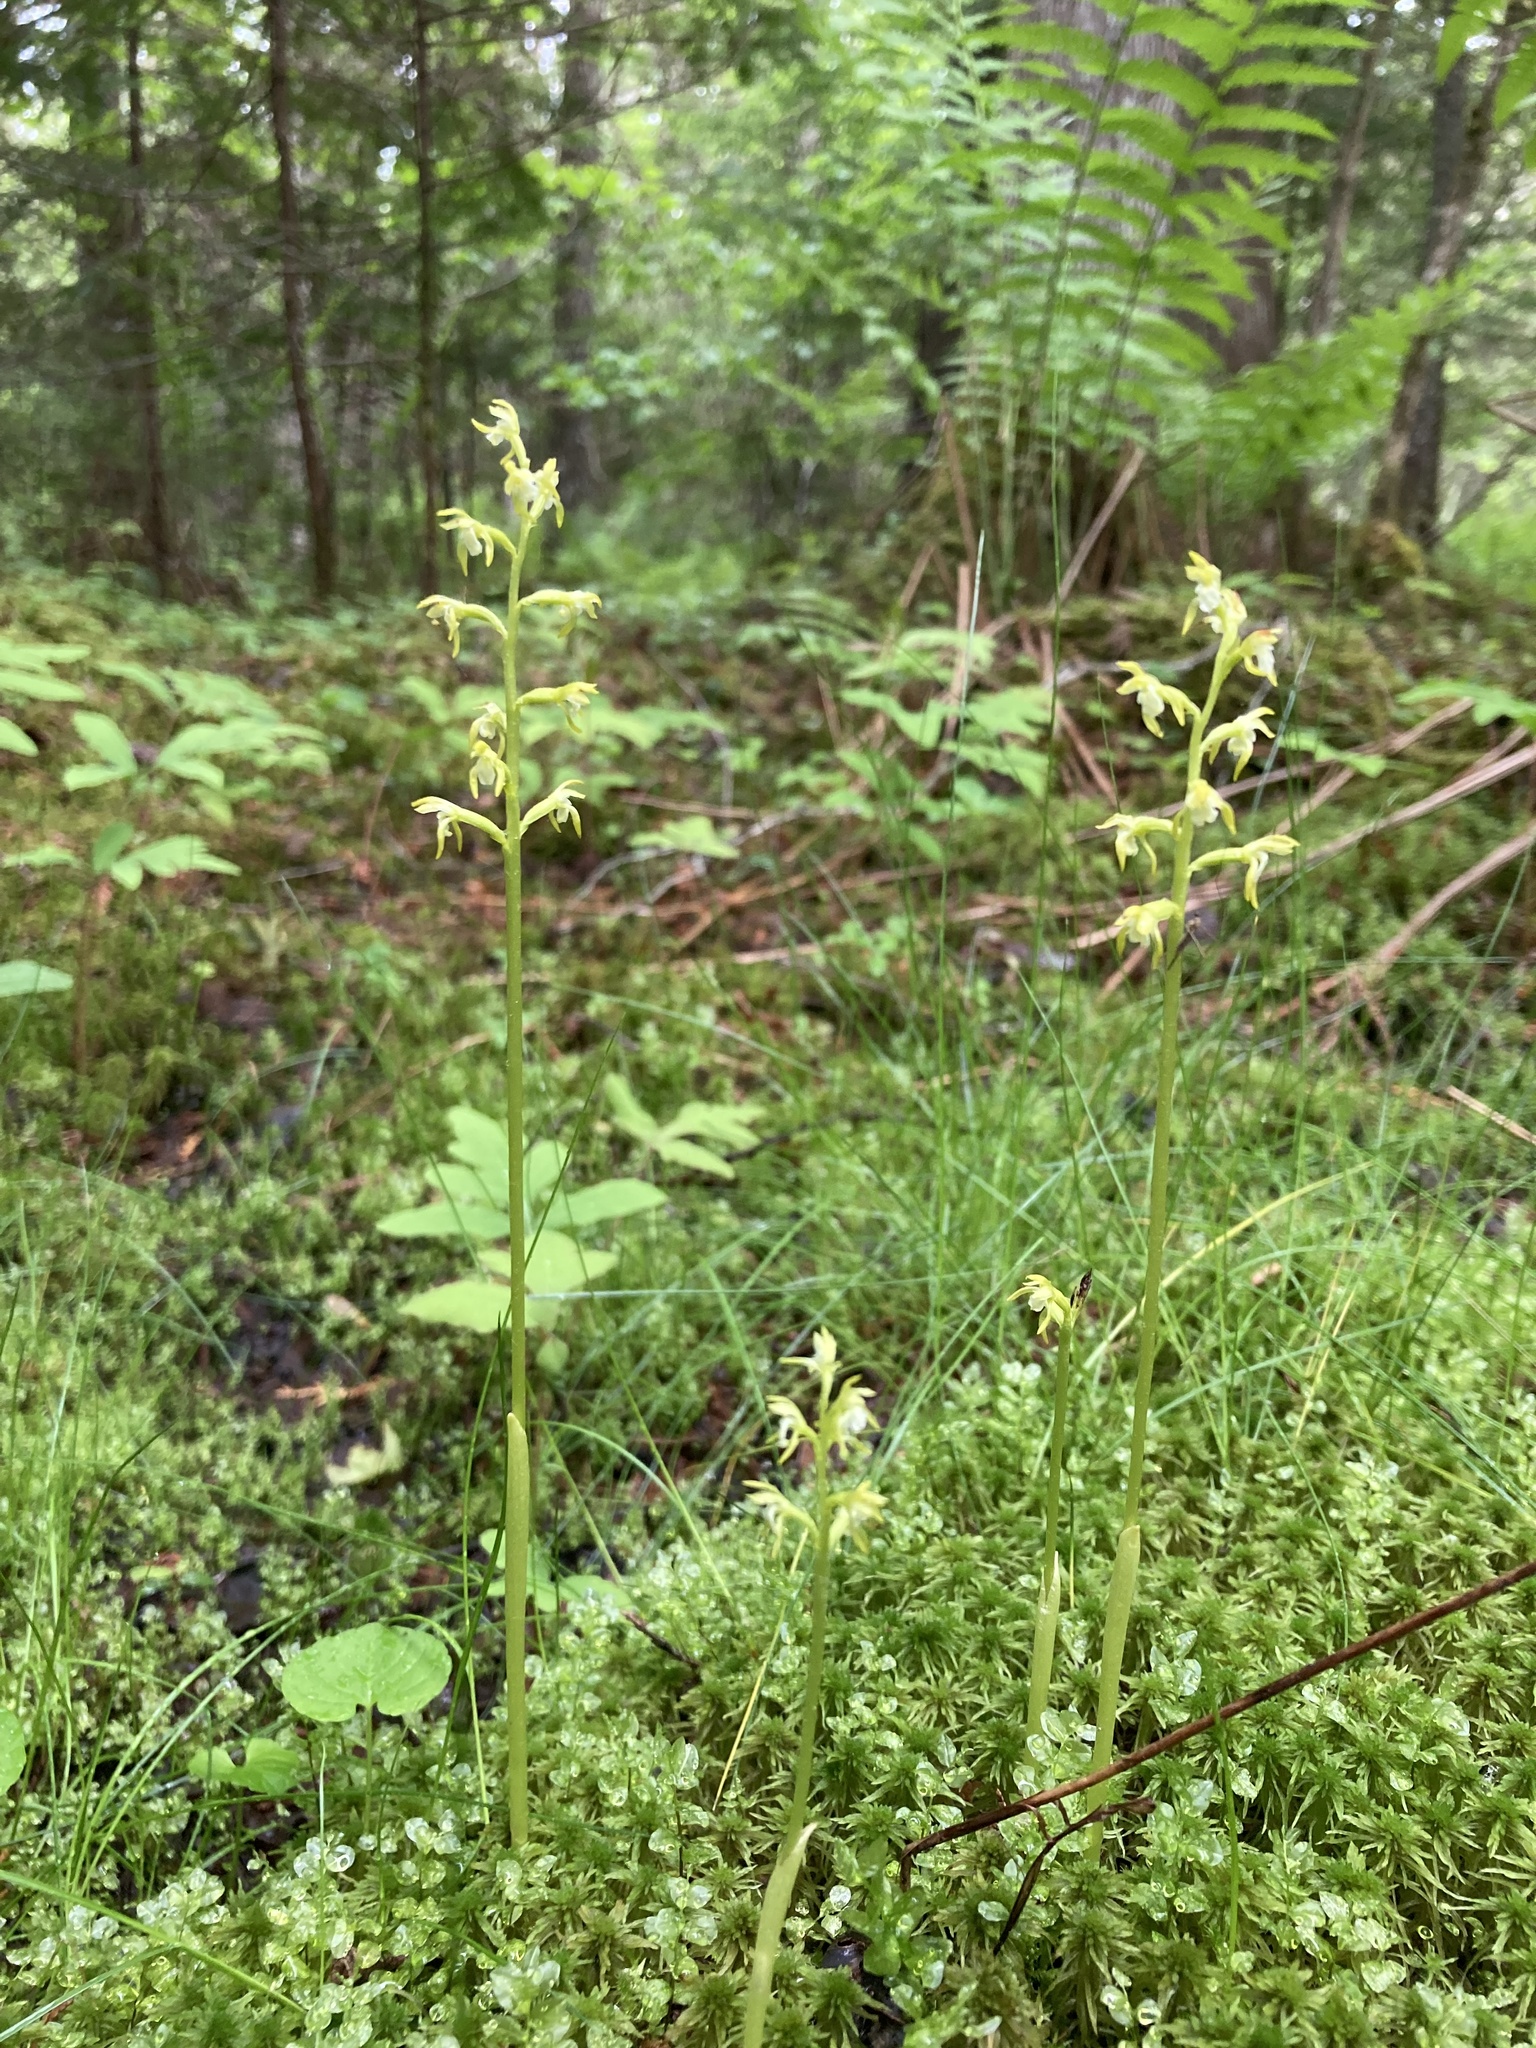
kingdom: Plantae
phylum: Tracheophyta
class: Liliopsida
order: Asparagales
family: Orchidaceae
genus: Corallorhiza
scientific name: Corallorhiza trifida
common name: Yellow coralroot
